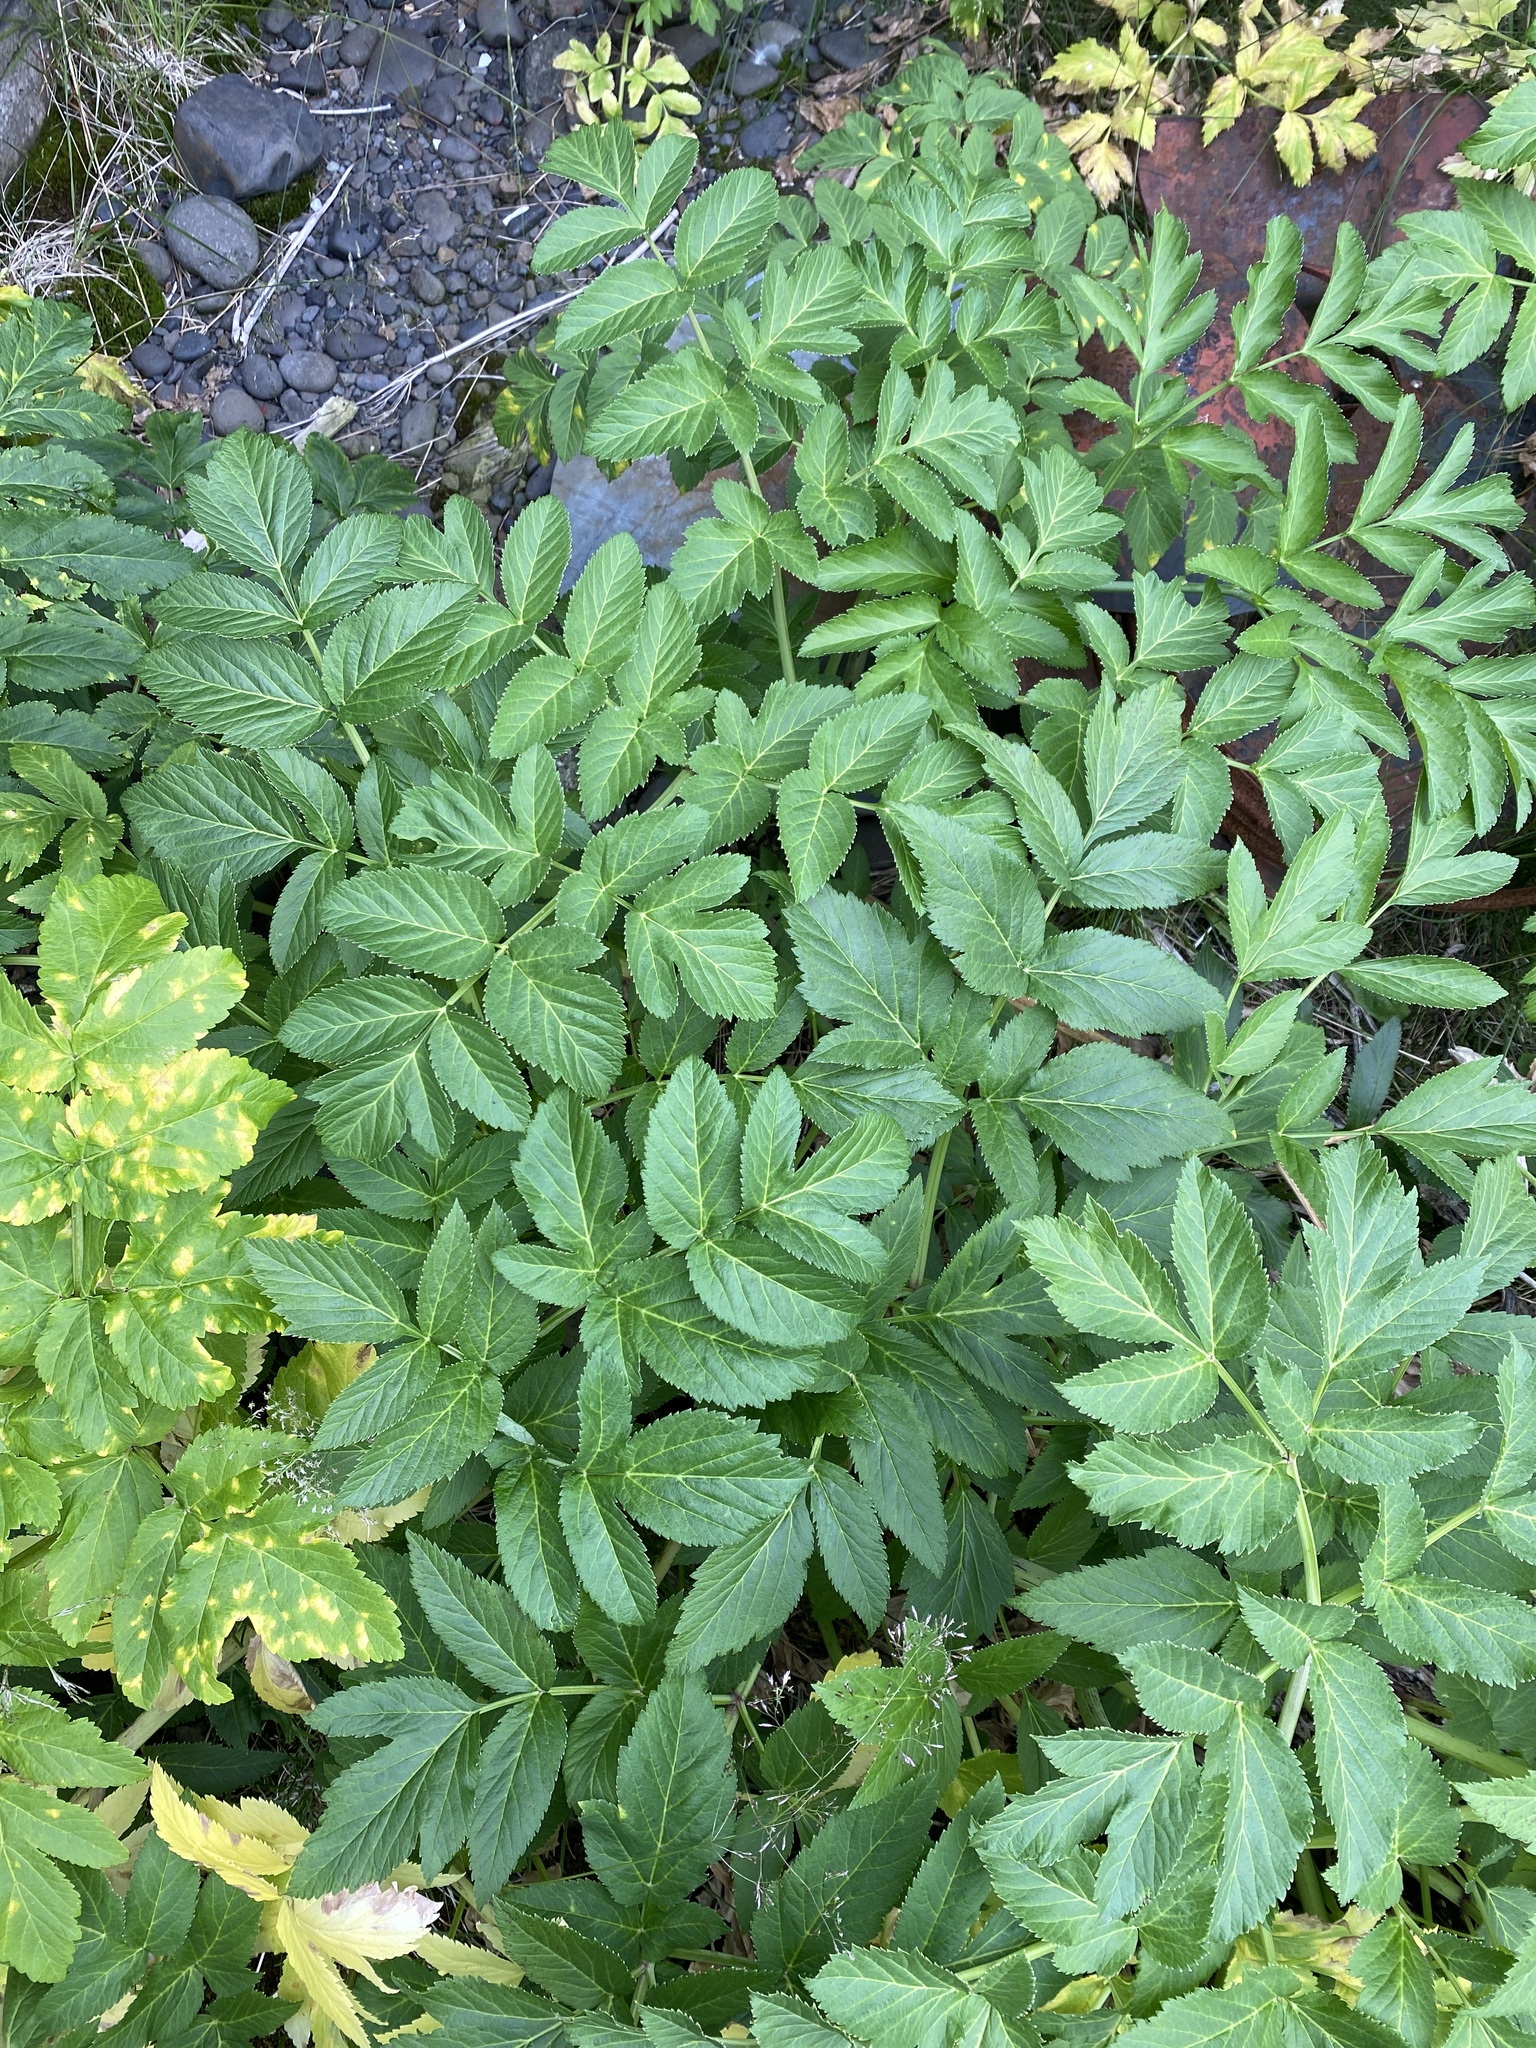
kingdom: Plantae
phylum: Tracheophyta
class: Magnoliopsida
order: Apiales
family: Apiaceae
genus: Angelica
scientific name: Angelica archangelica
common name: Garden angelica
